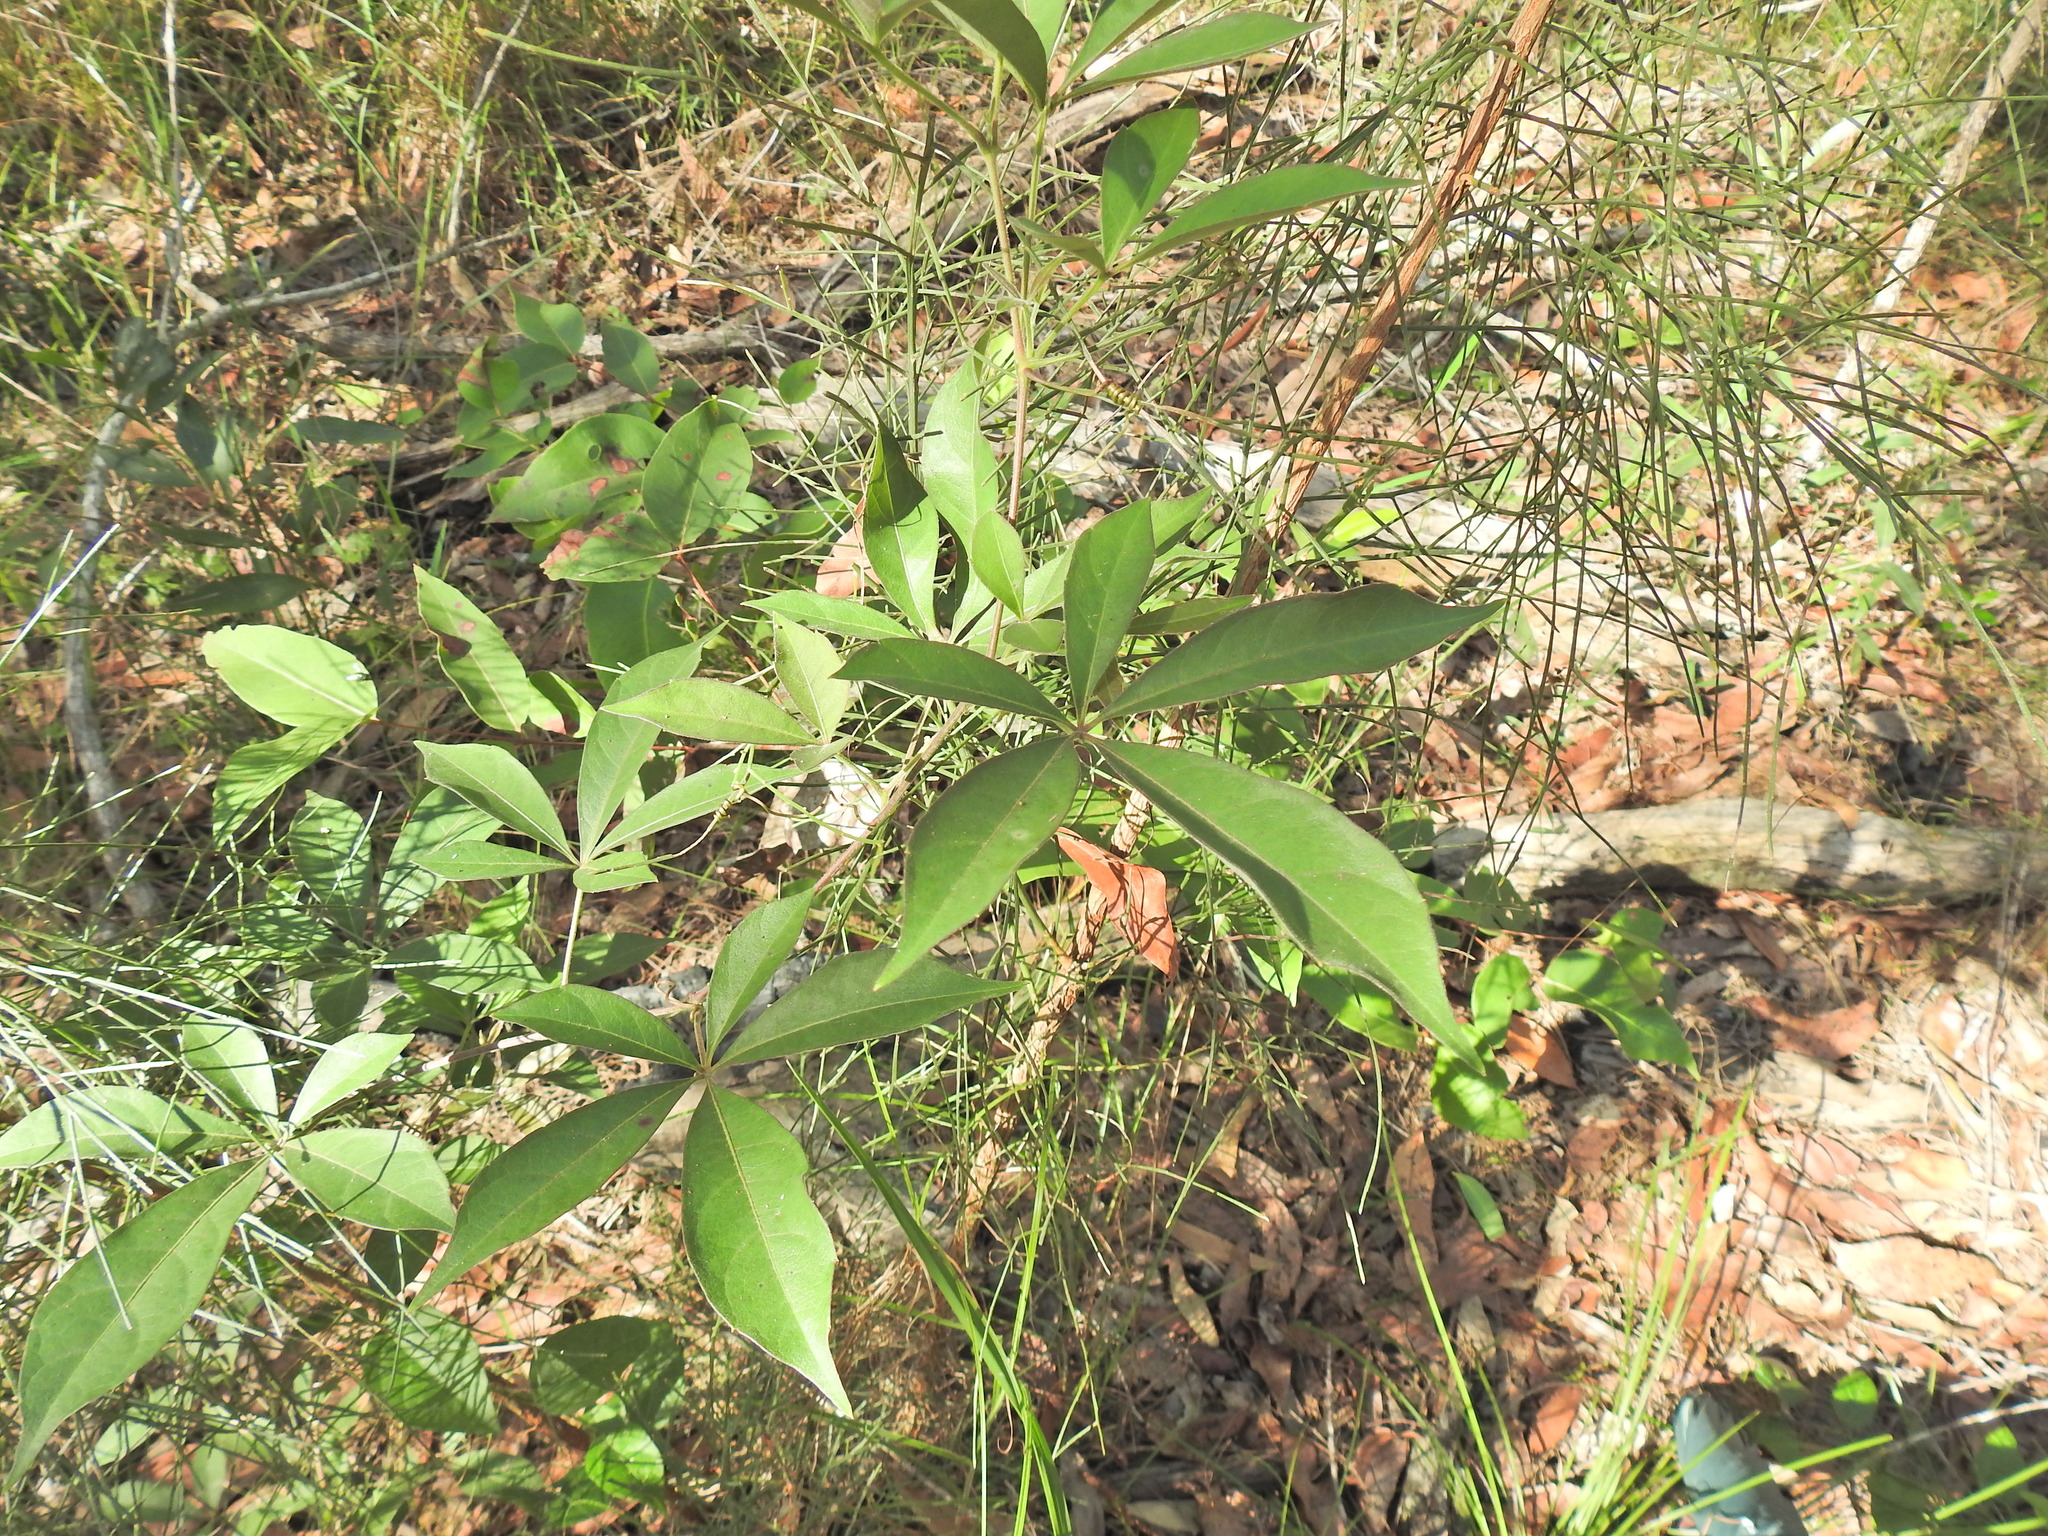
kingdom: Plantae
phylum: Tracheophyta
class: Magnoliopsida
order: Vitales
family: Vitaceae
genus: Clematicissus
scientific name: Clematicissus opaca
